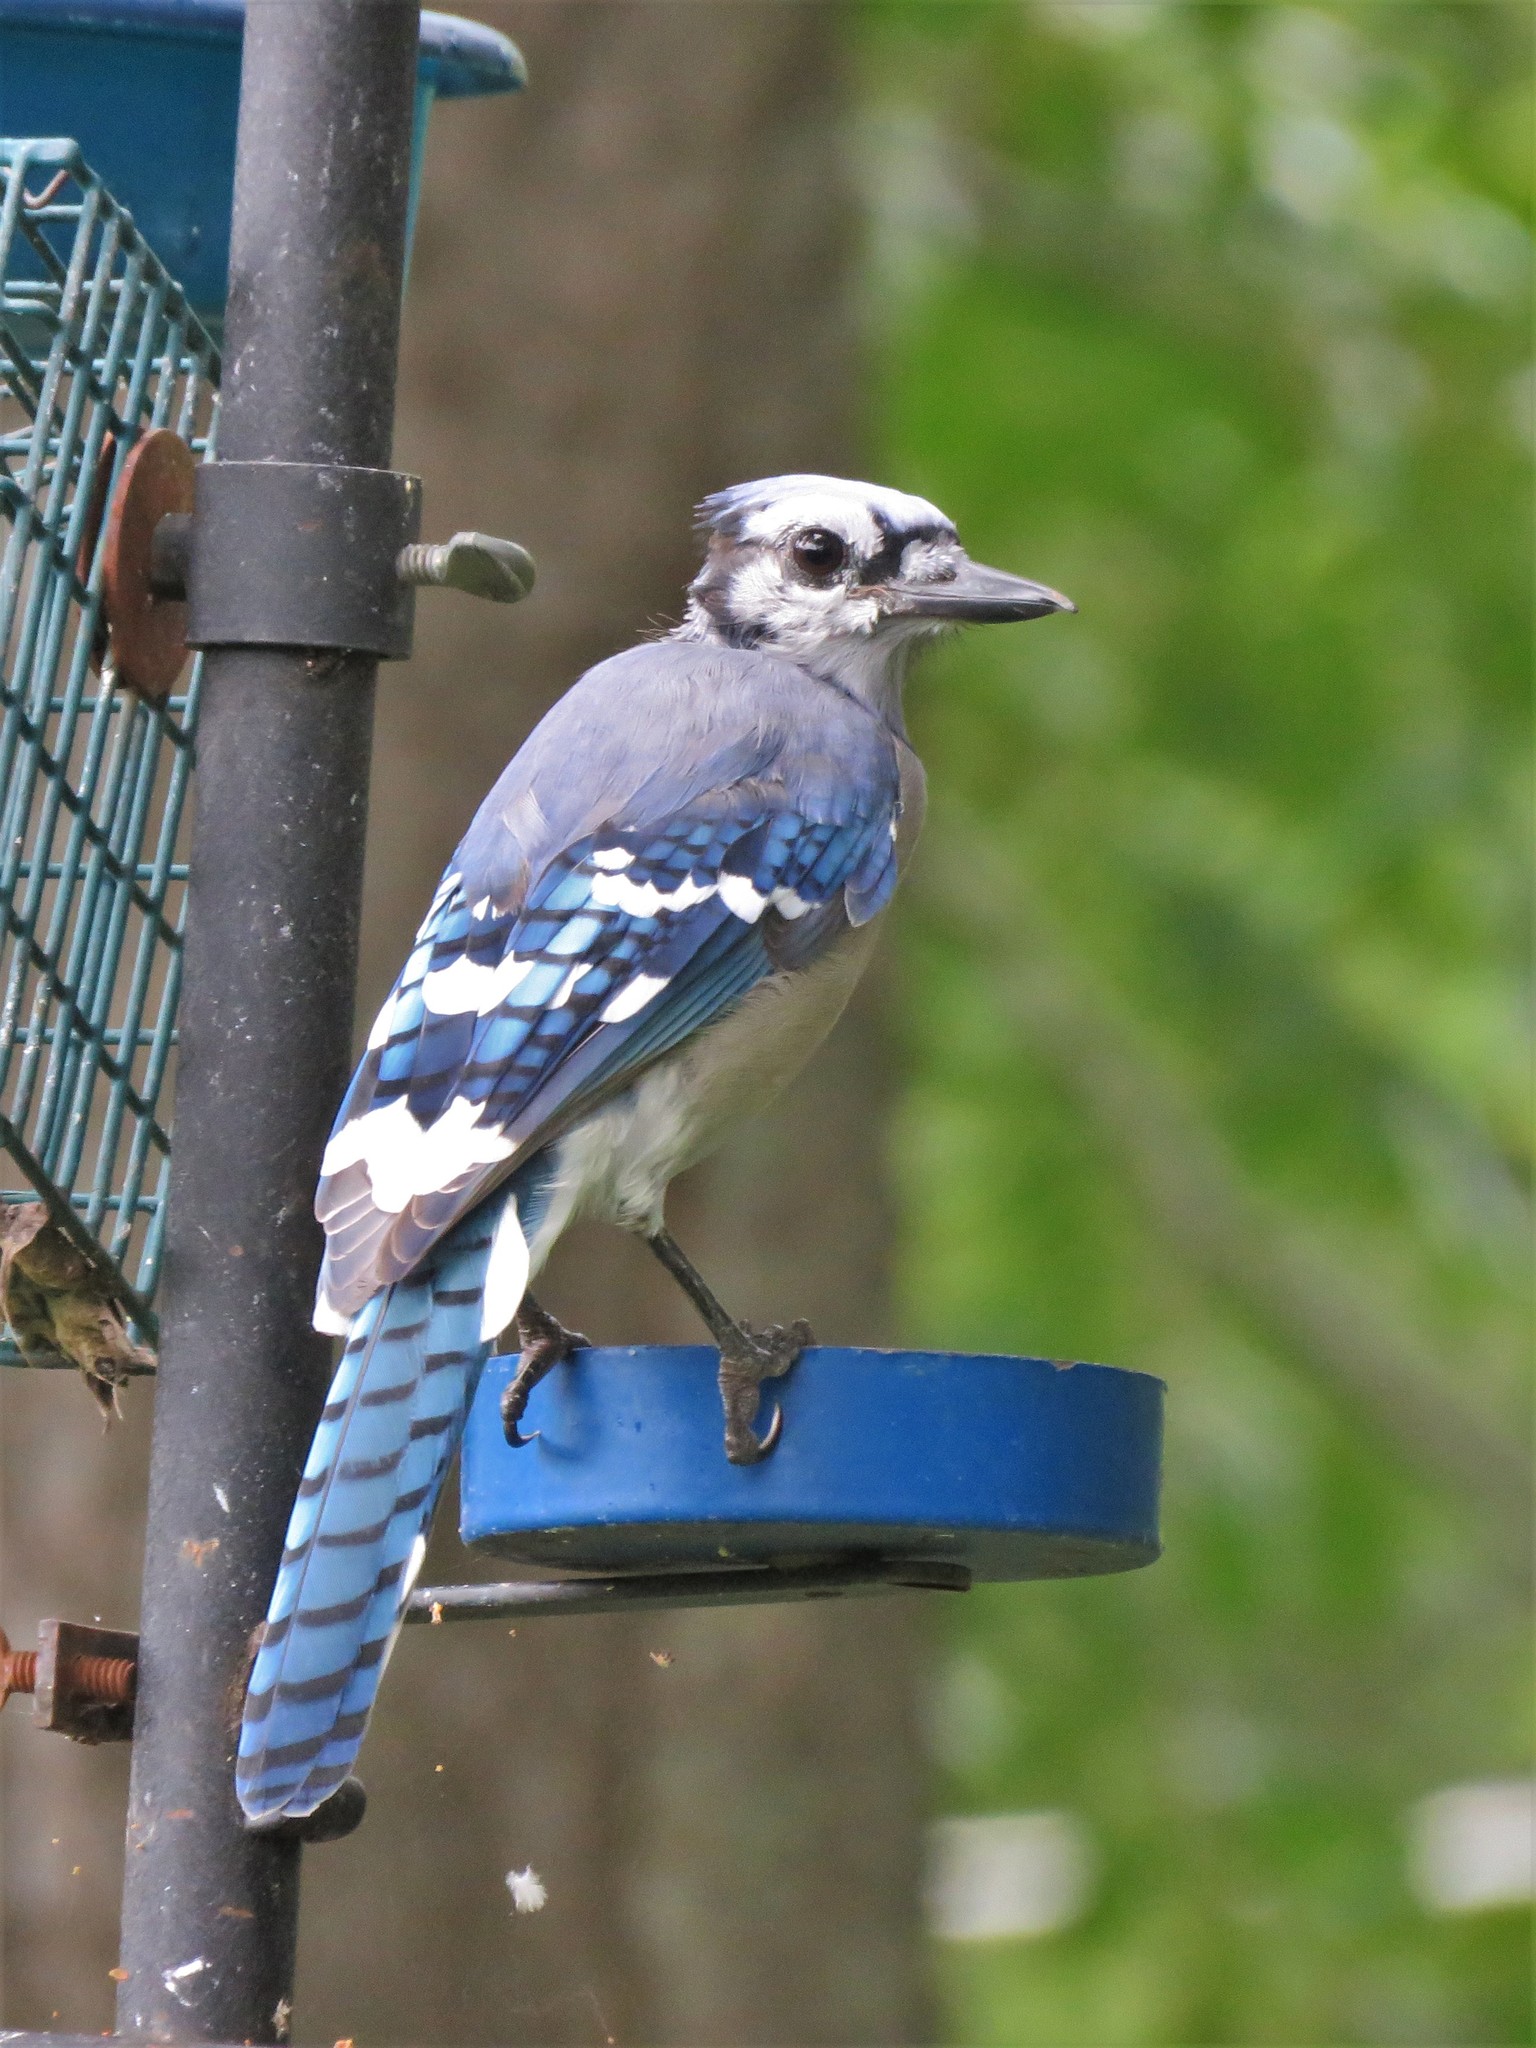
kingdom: Animalia
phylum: Chordata
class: Aves
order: Passeriformes
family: Corvidae
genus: Cyanocitta
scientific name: Cyanocitta cristata
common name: Blue jay
